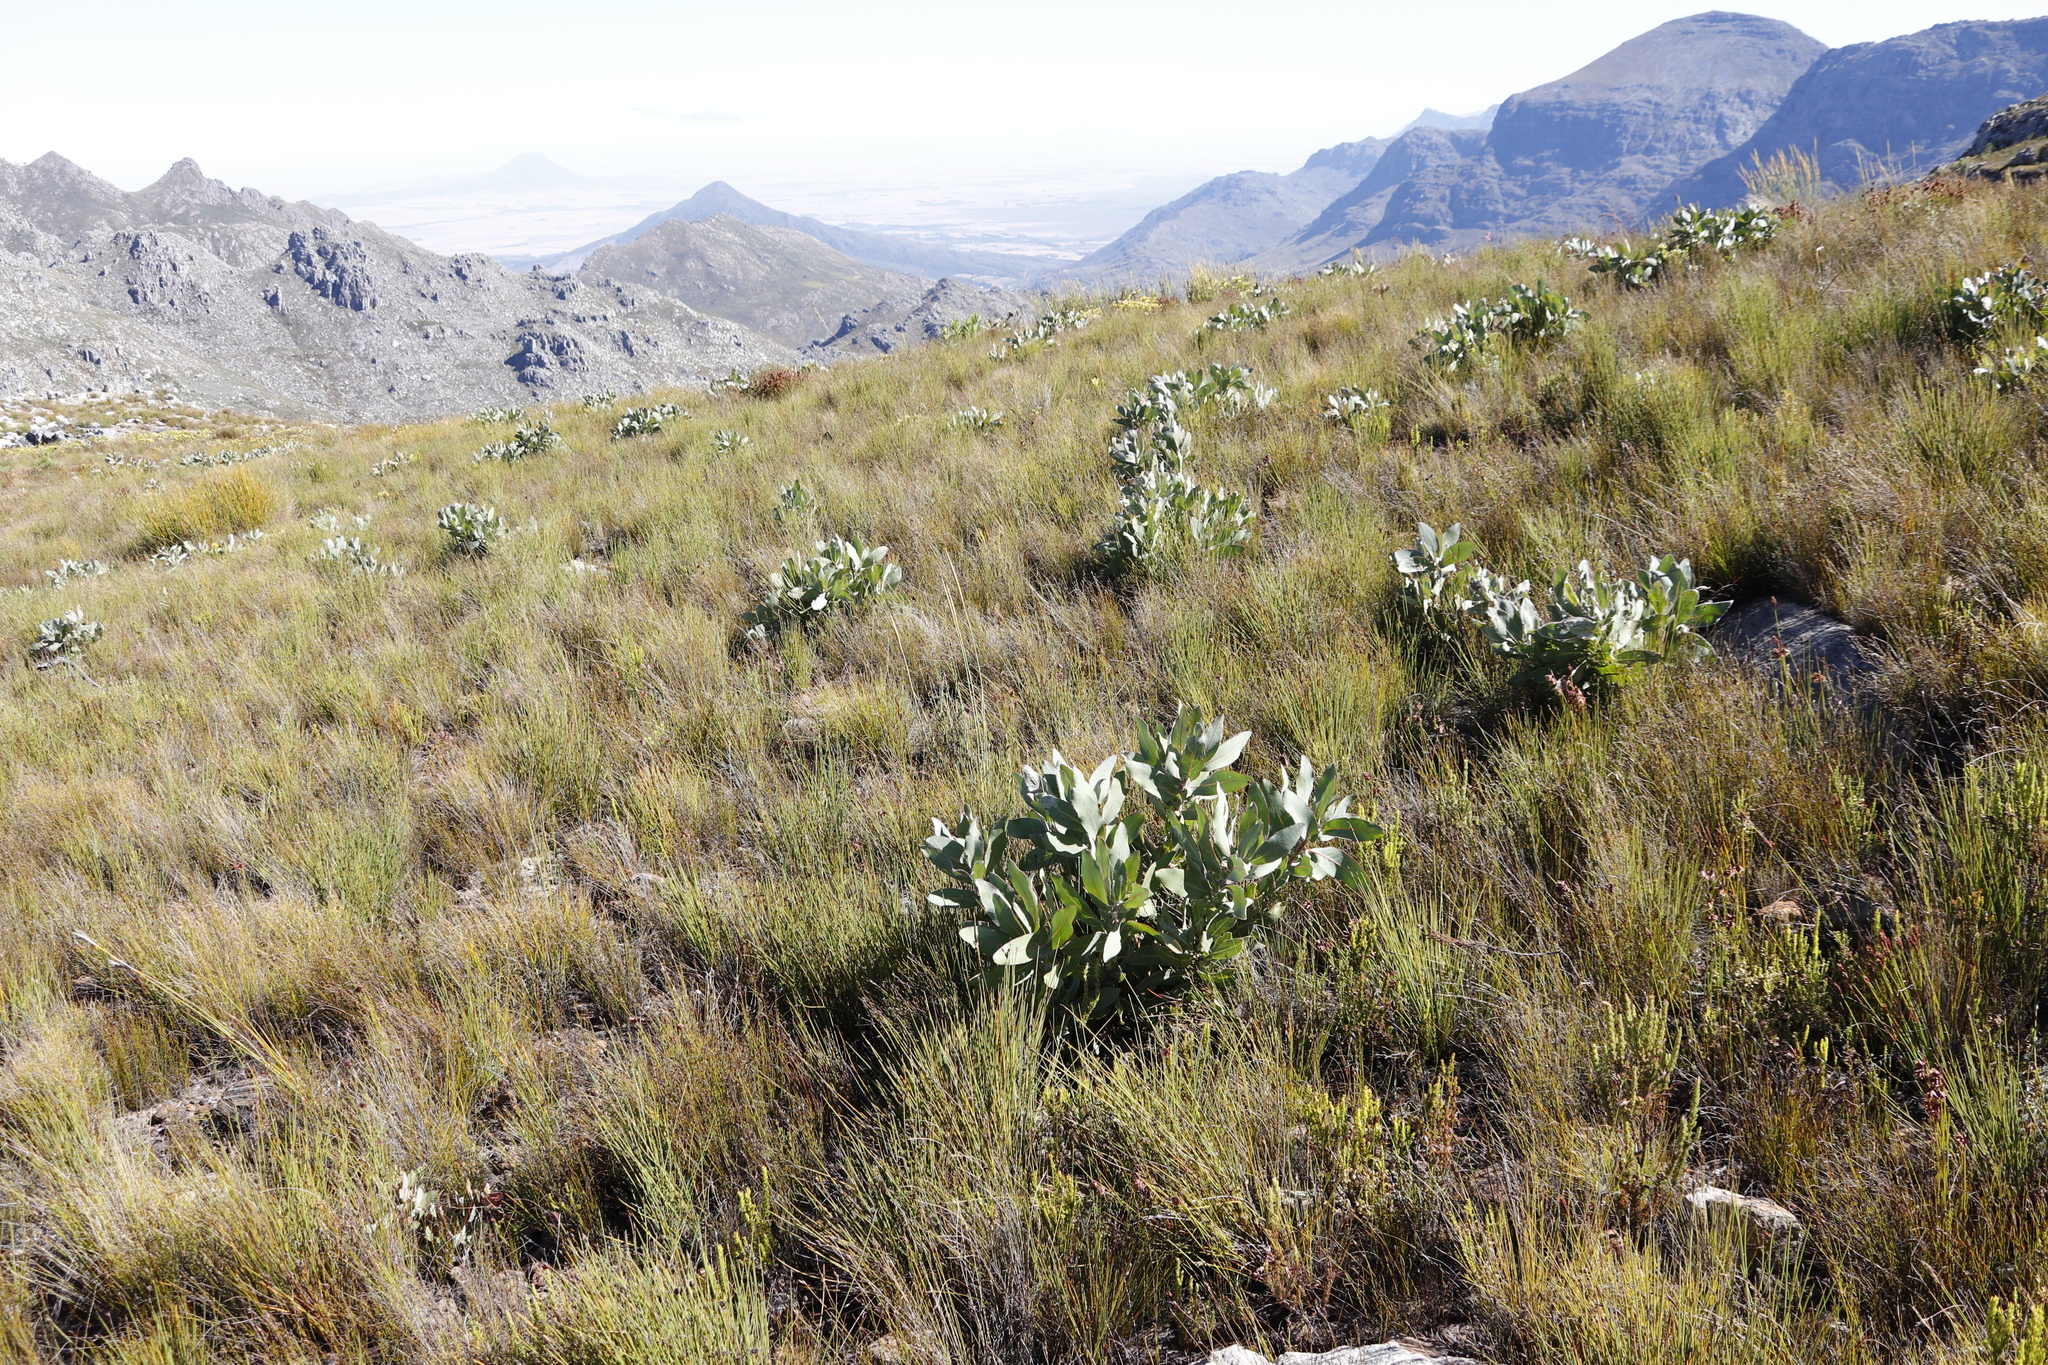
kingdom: Plantae
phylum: Tracheophyta
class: Magnoliopsida
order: Proteales
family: Proteaceae
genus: Protea
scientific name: Protea magnifica
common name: Bearded sugarbush
